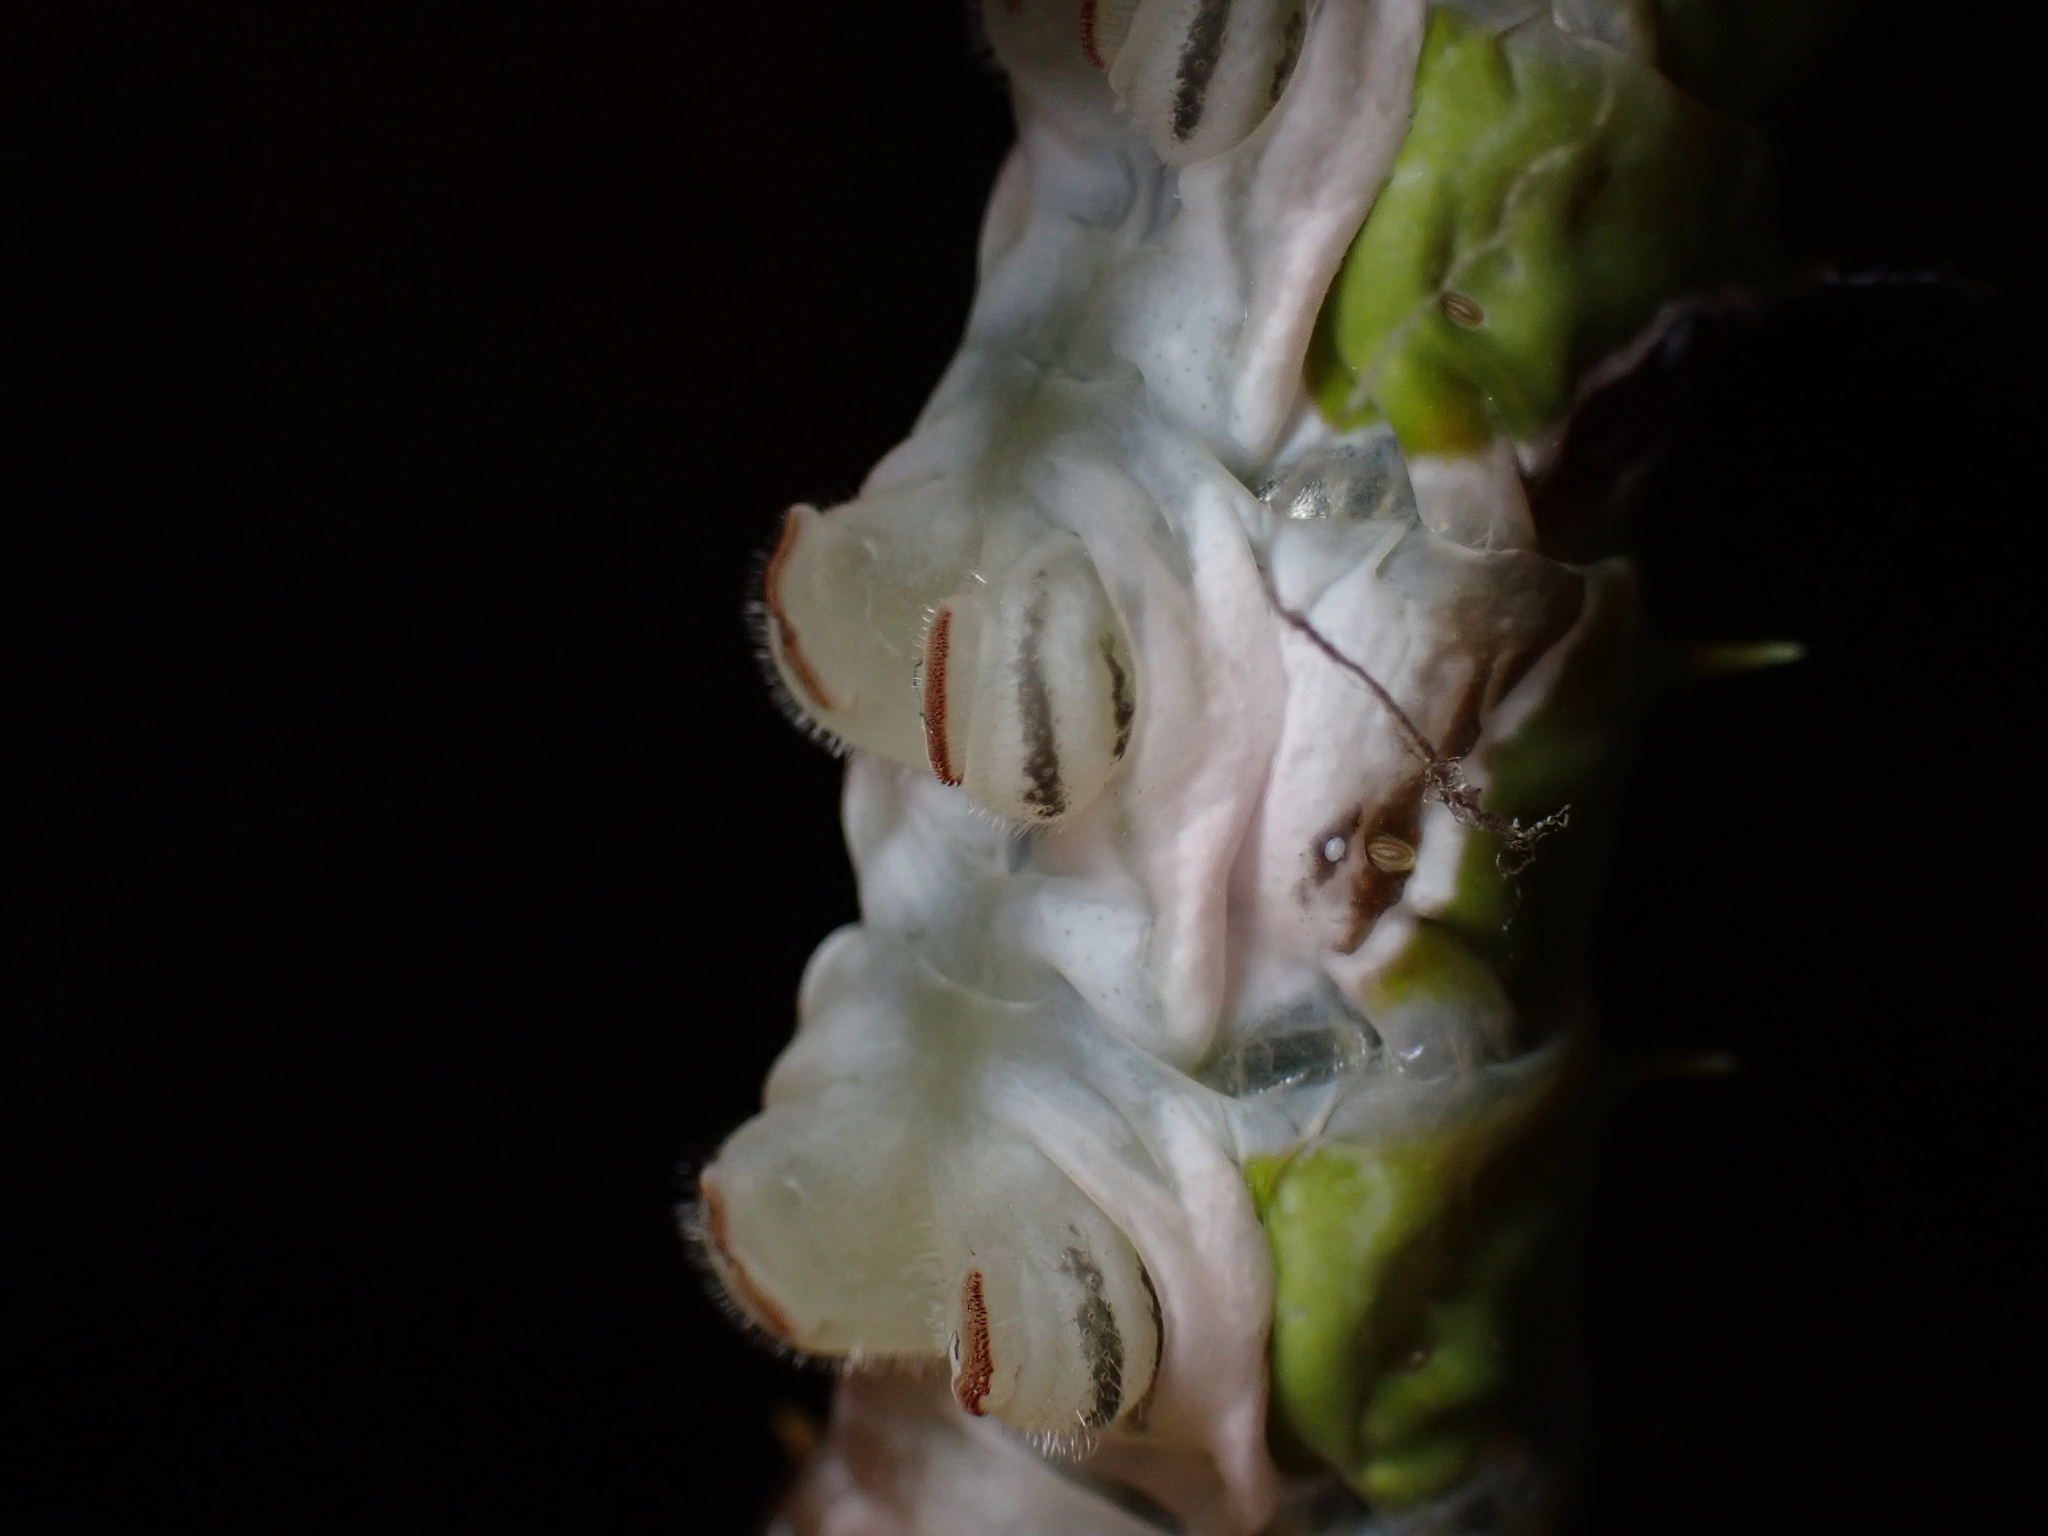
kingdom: Animalia
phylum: Arthropoda
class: Insecta
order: Lepidoptera
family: Papilionidae
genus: Papilio
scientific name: Papilio aegeus
